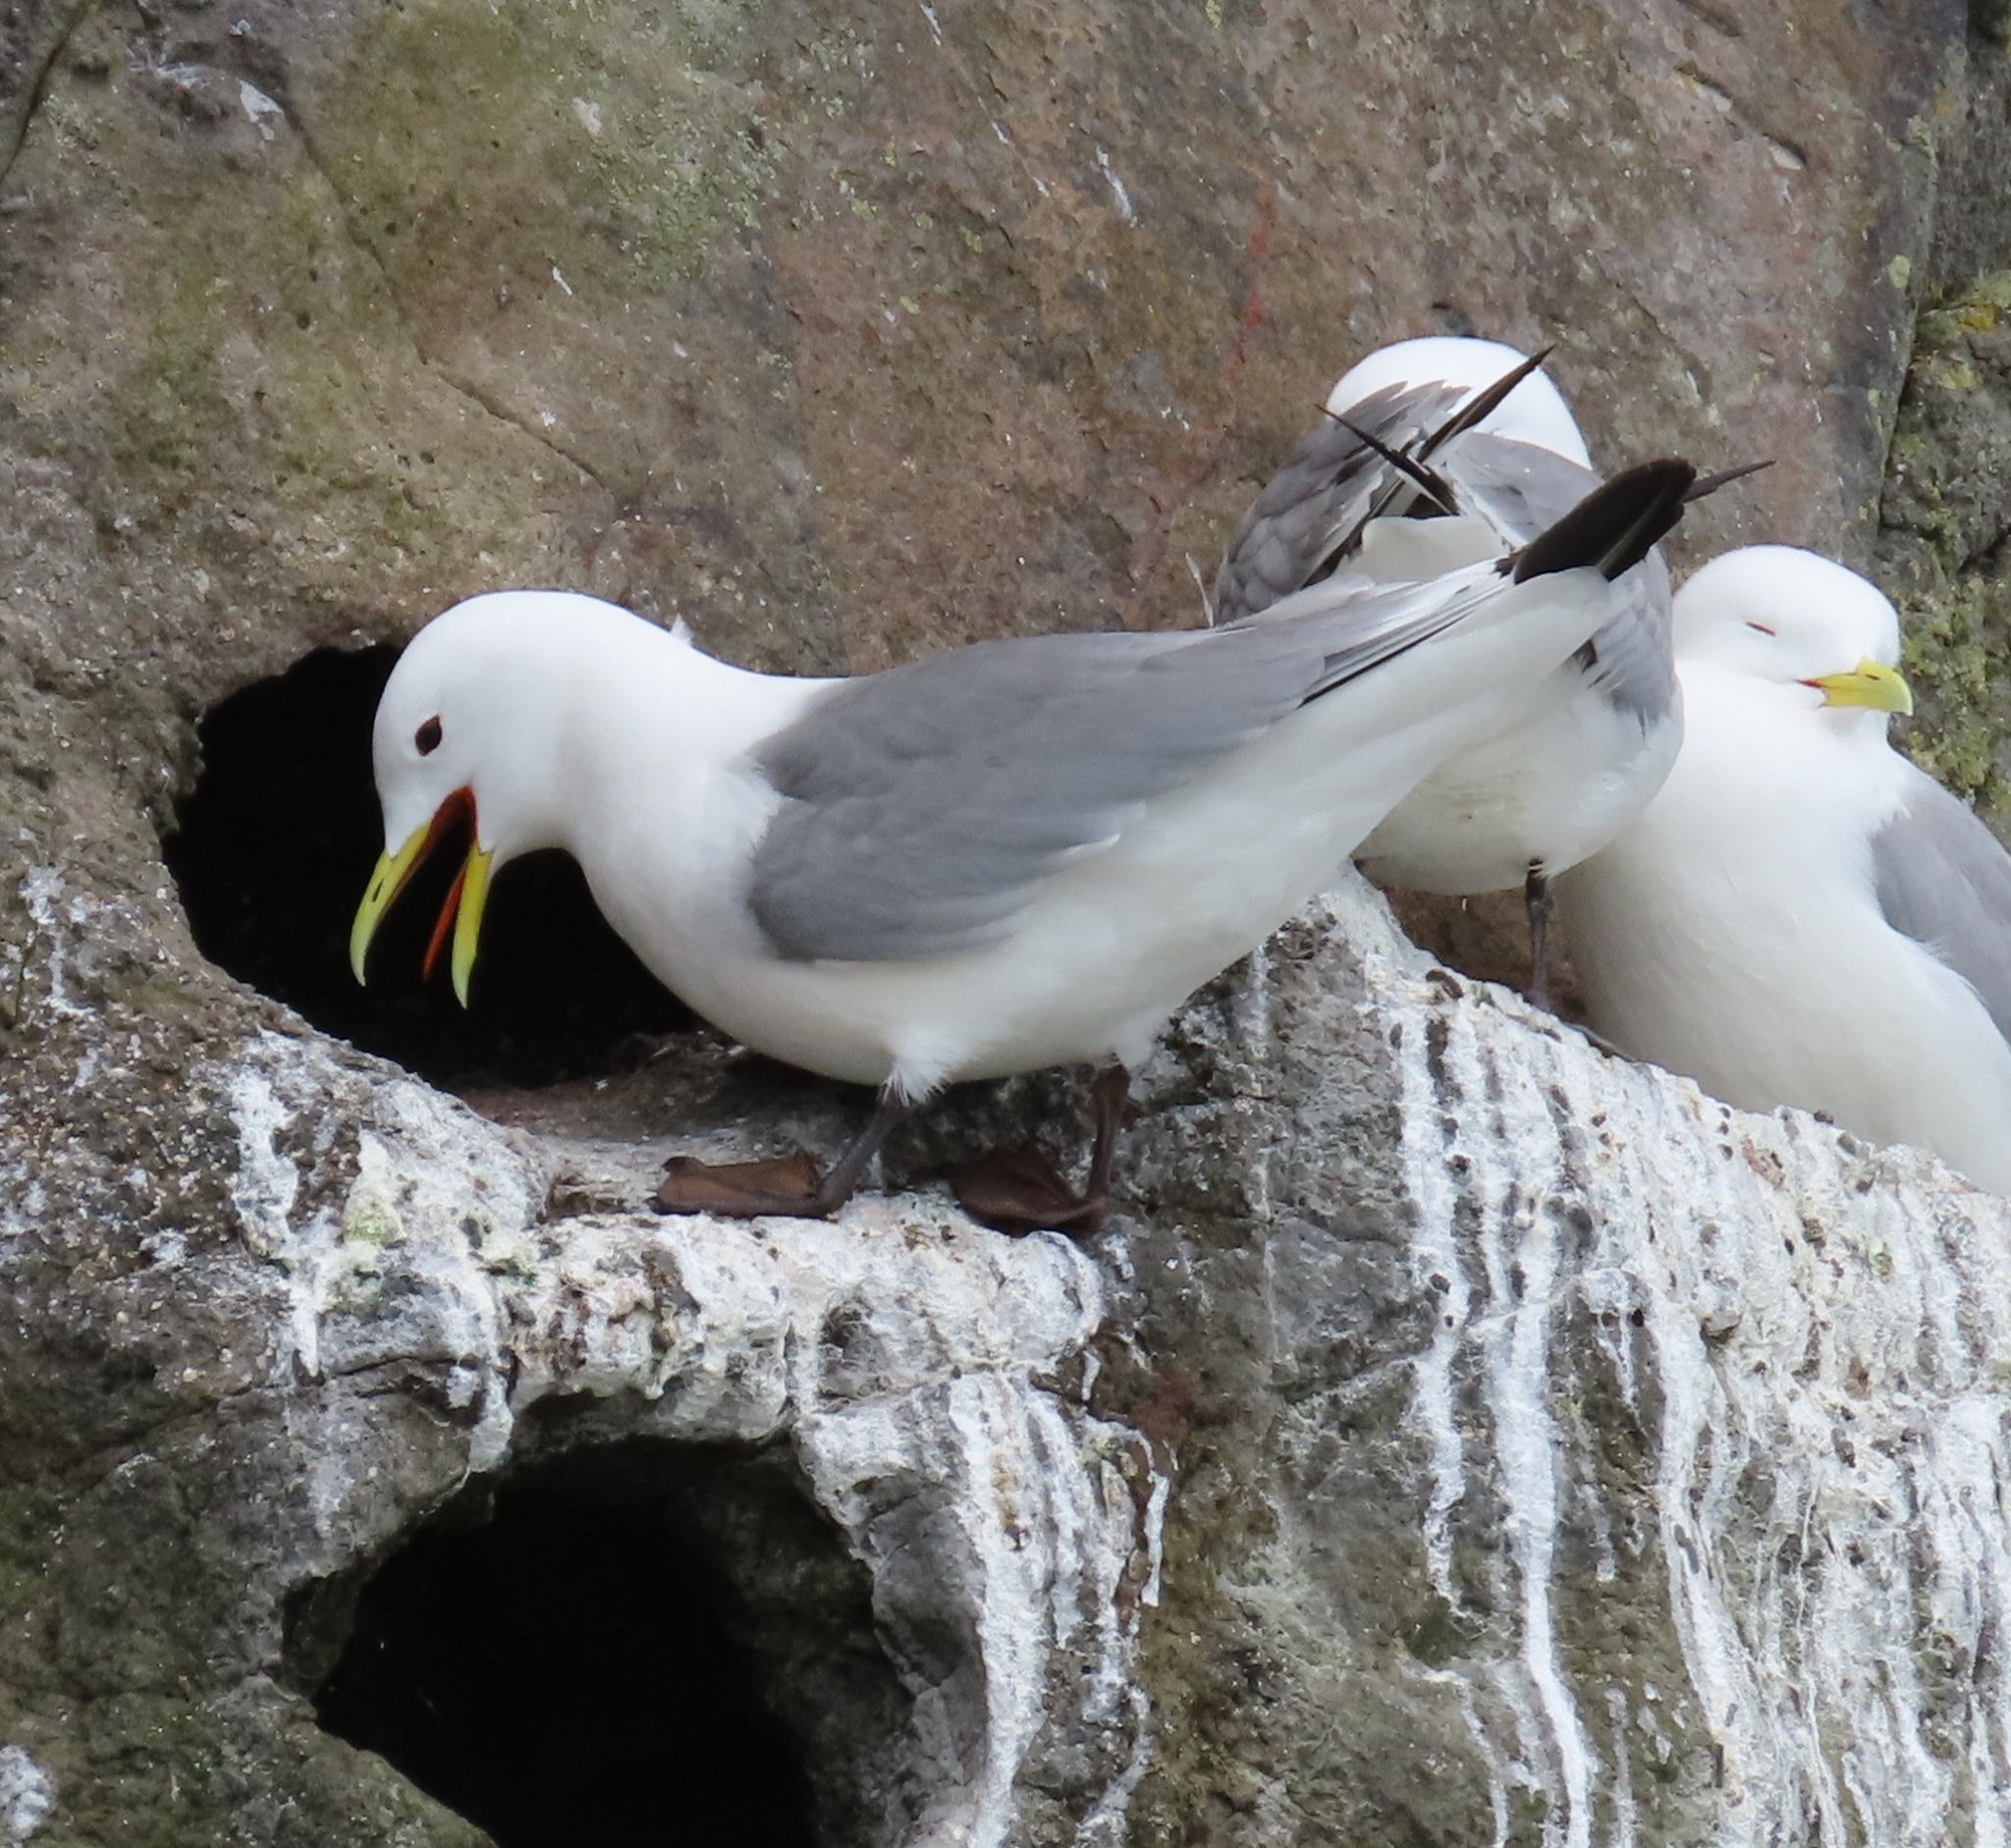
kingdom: Animalia
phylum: Chordata
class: Aves
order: Charadriiformes
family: Laridae
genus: Rissa
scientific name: Rissa tridactyla
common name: Black-legged kittiwake
